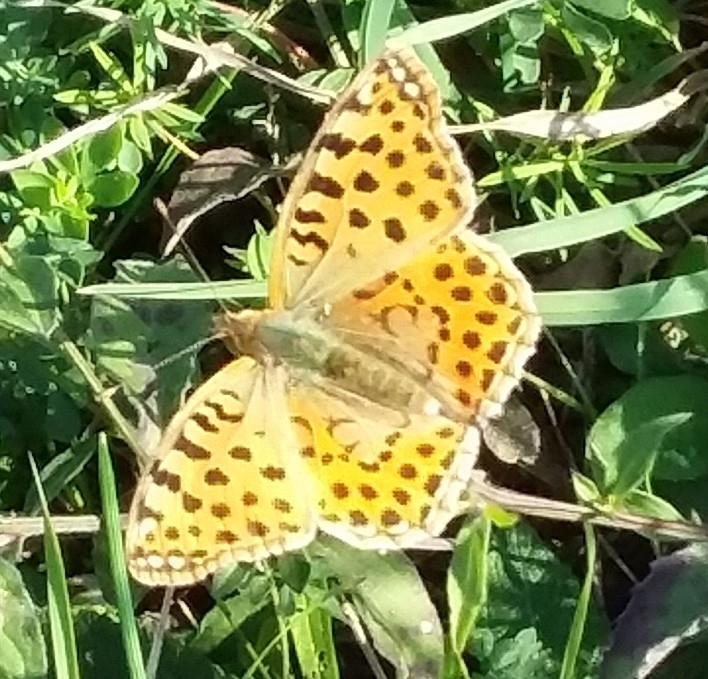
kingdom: Animalia
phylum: Arthropoda
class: Insecta
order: Lepidoptera
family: Nymphalidae
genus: Issoria
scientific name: Issoria lathonia
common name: Queen of spain fritillary
